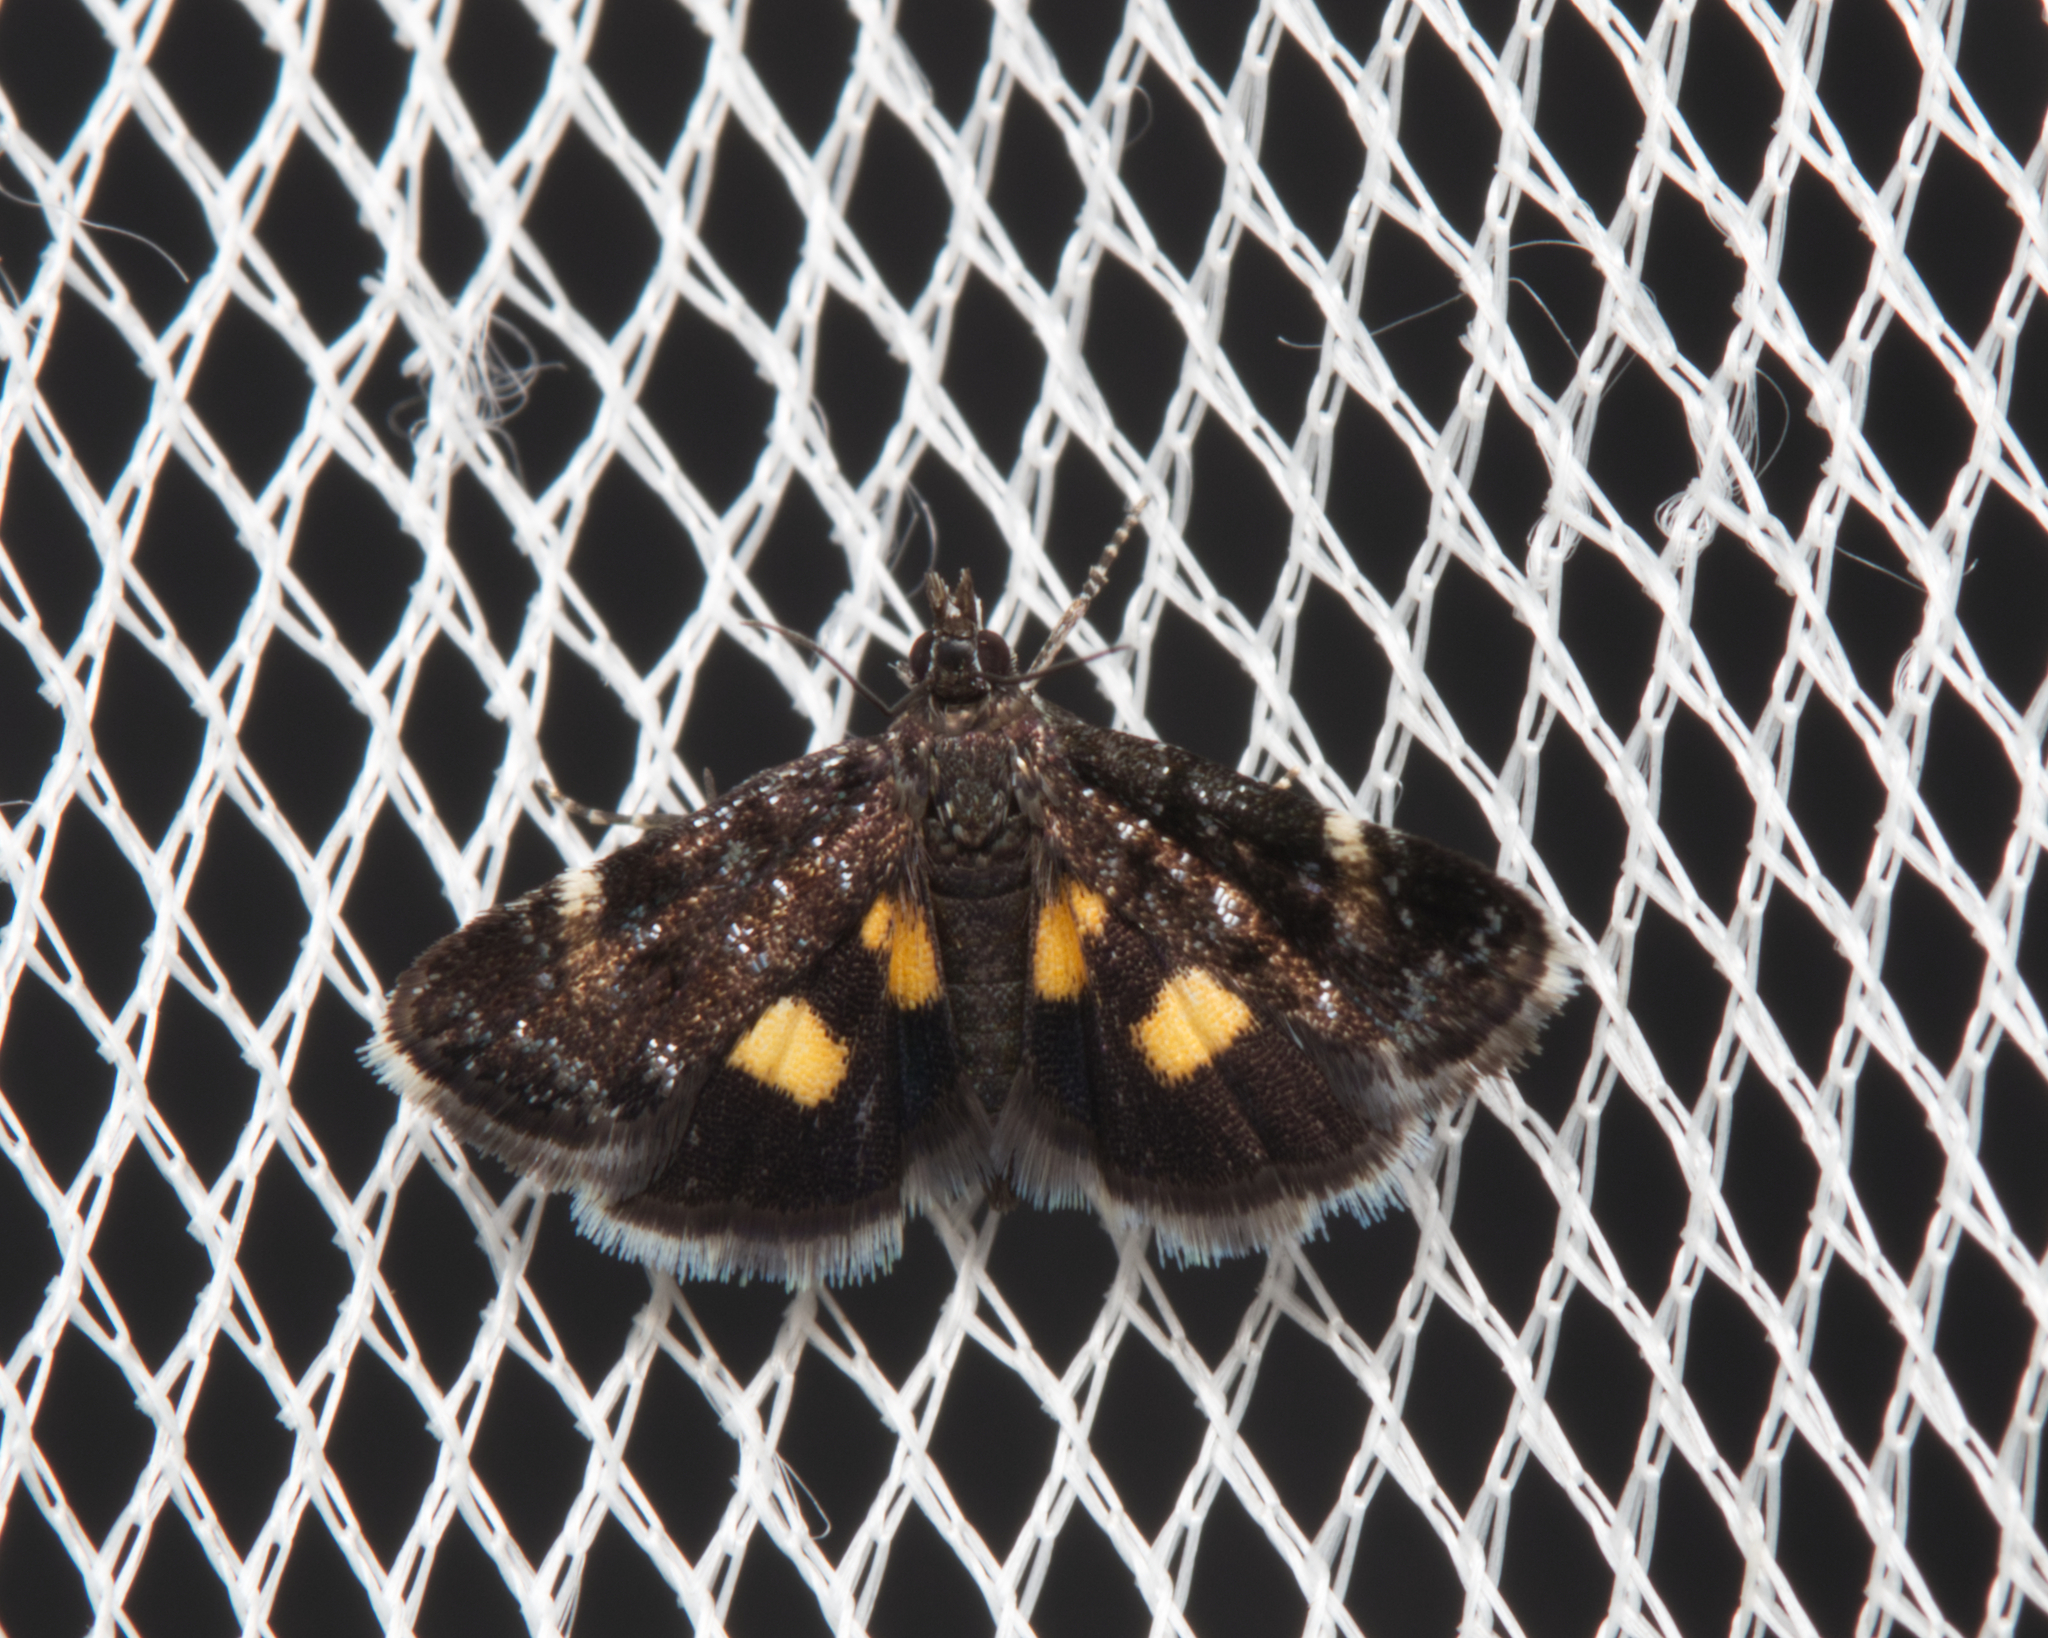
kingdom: Animalia
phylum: Arthropoda
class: Insecta
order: Lepidoptera
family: Crambidae
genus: Heliothela
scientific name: Heliothela didymospila
